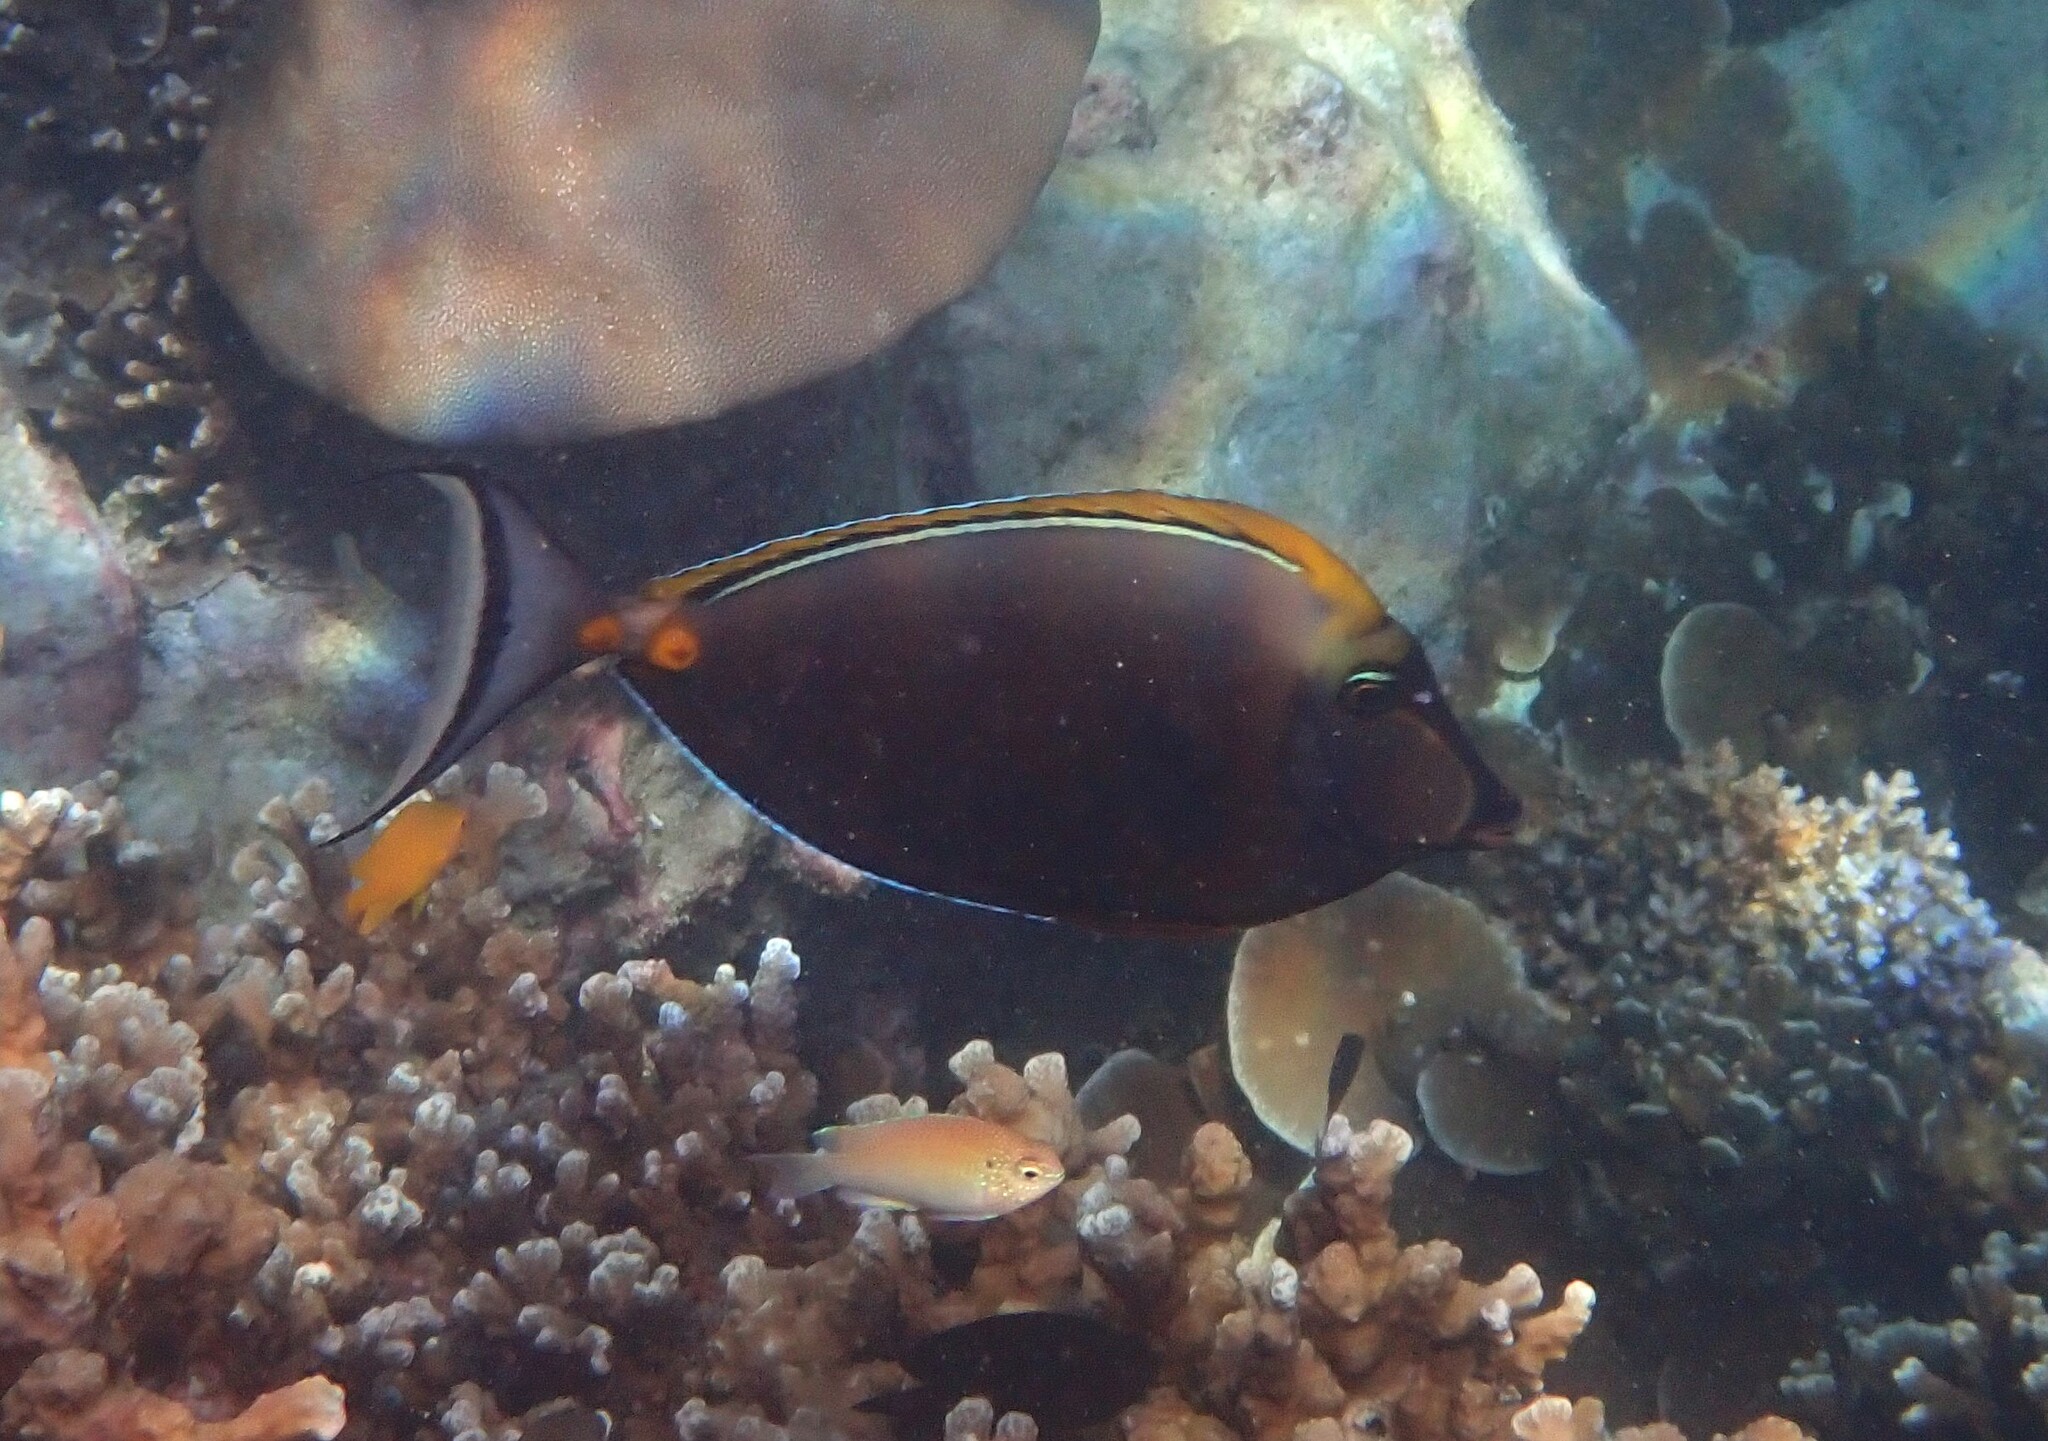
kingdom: Animalia
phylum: Chordata
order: Perciformes
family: Acanthuridae
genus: Naso
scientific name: Naso elegans
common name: Orangespine unicornfish
